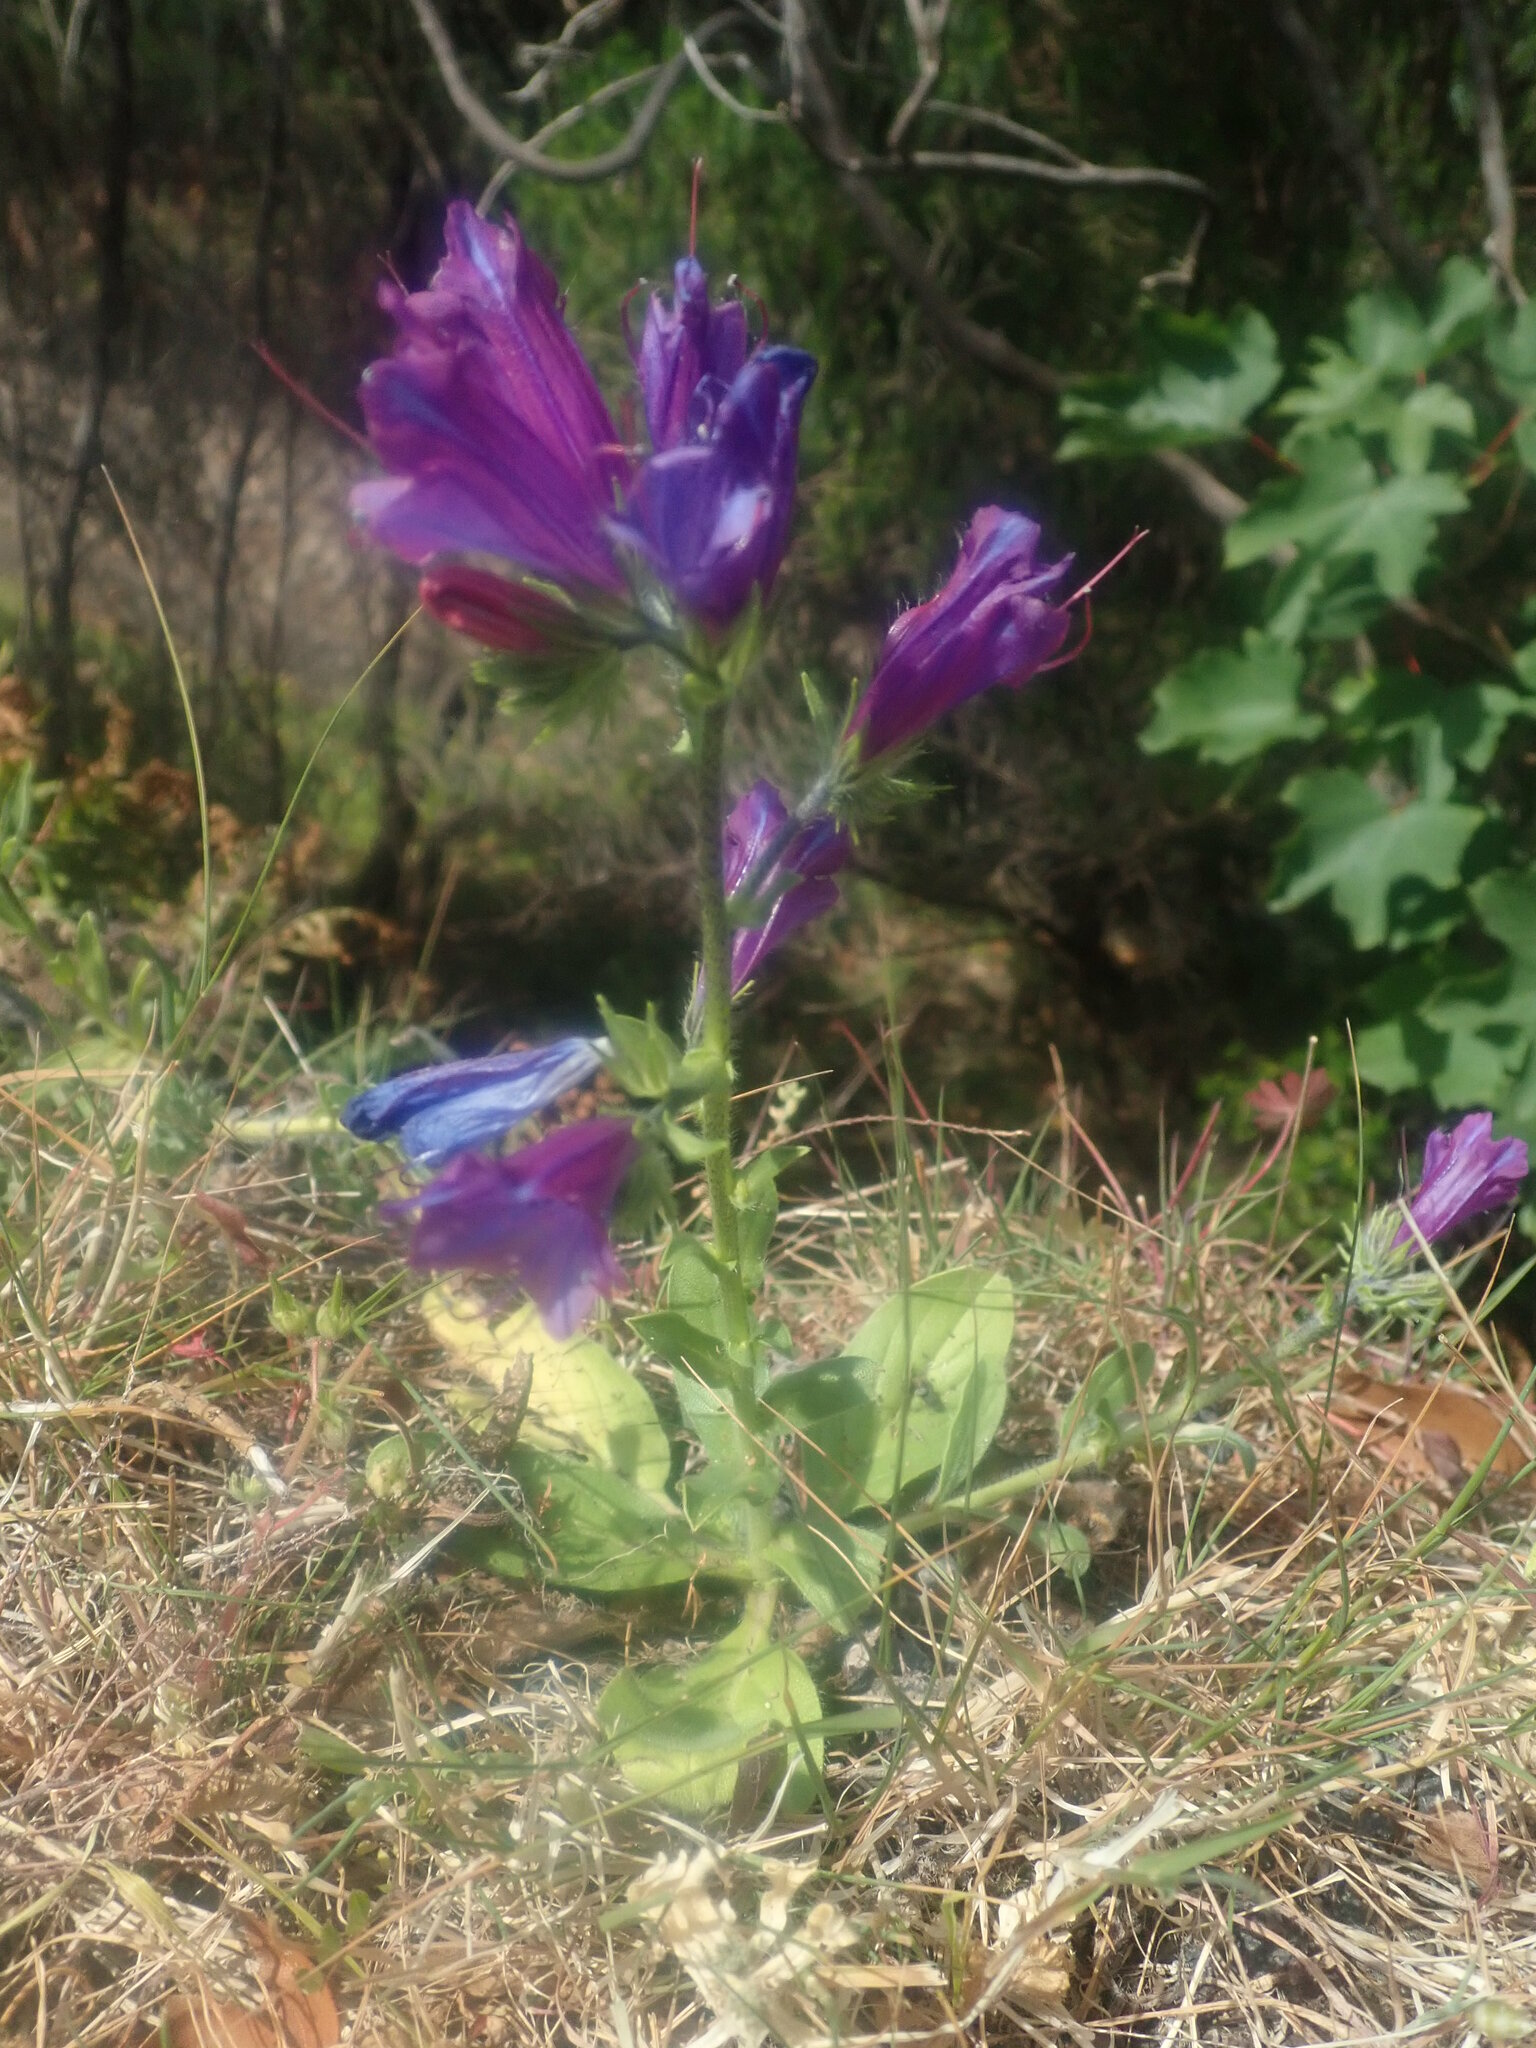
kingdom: Plantae
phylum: Tracheophyta
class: Magnoliopsida
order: Boraginales
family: Boraginaceae
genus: Echium
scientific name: Echium plantagineum
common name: Purple viper's-bugloss
